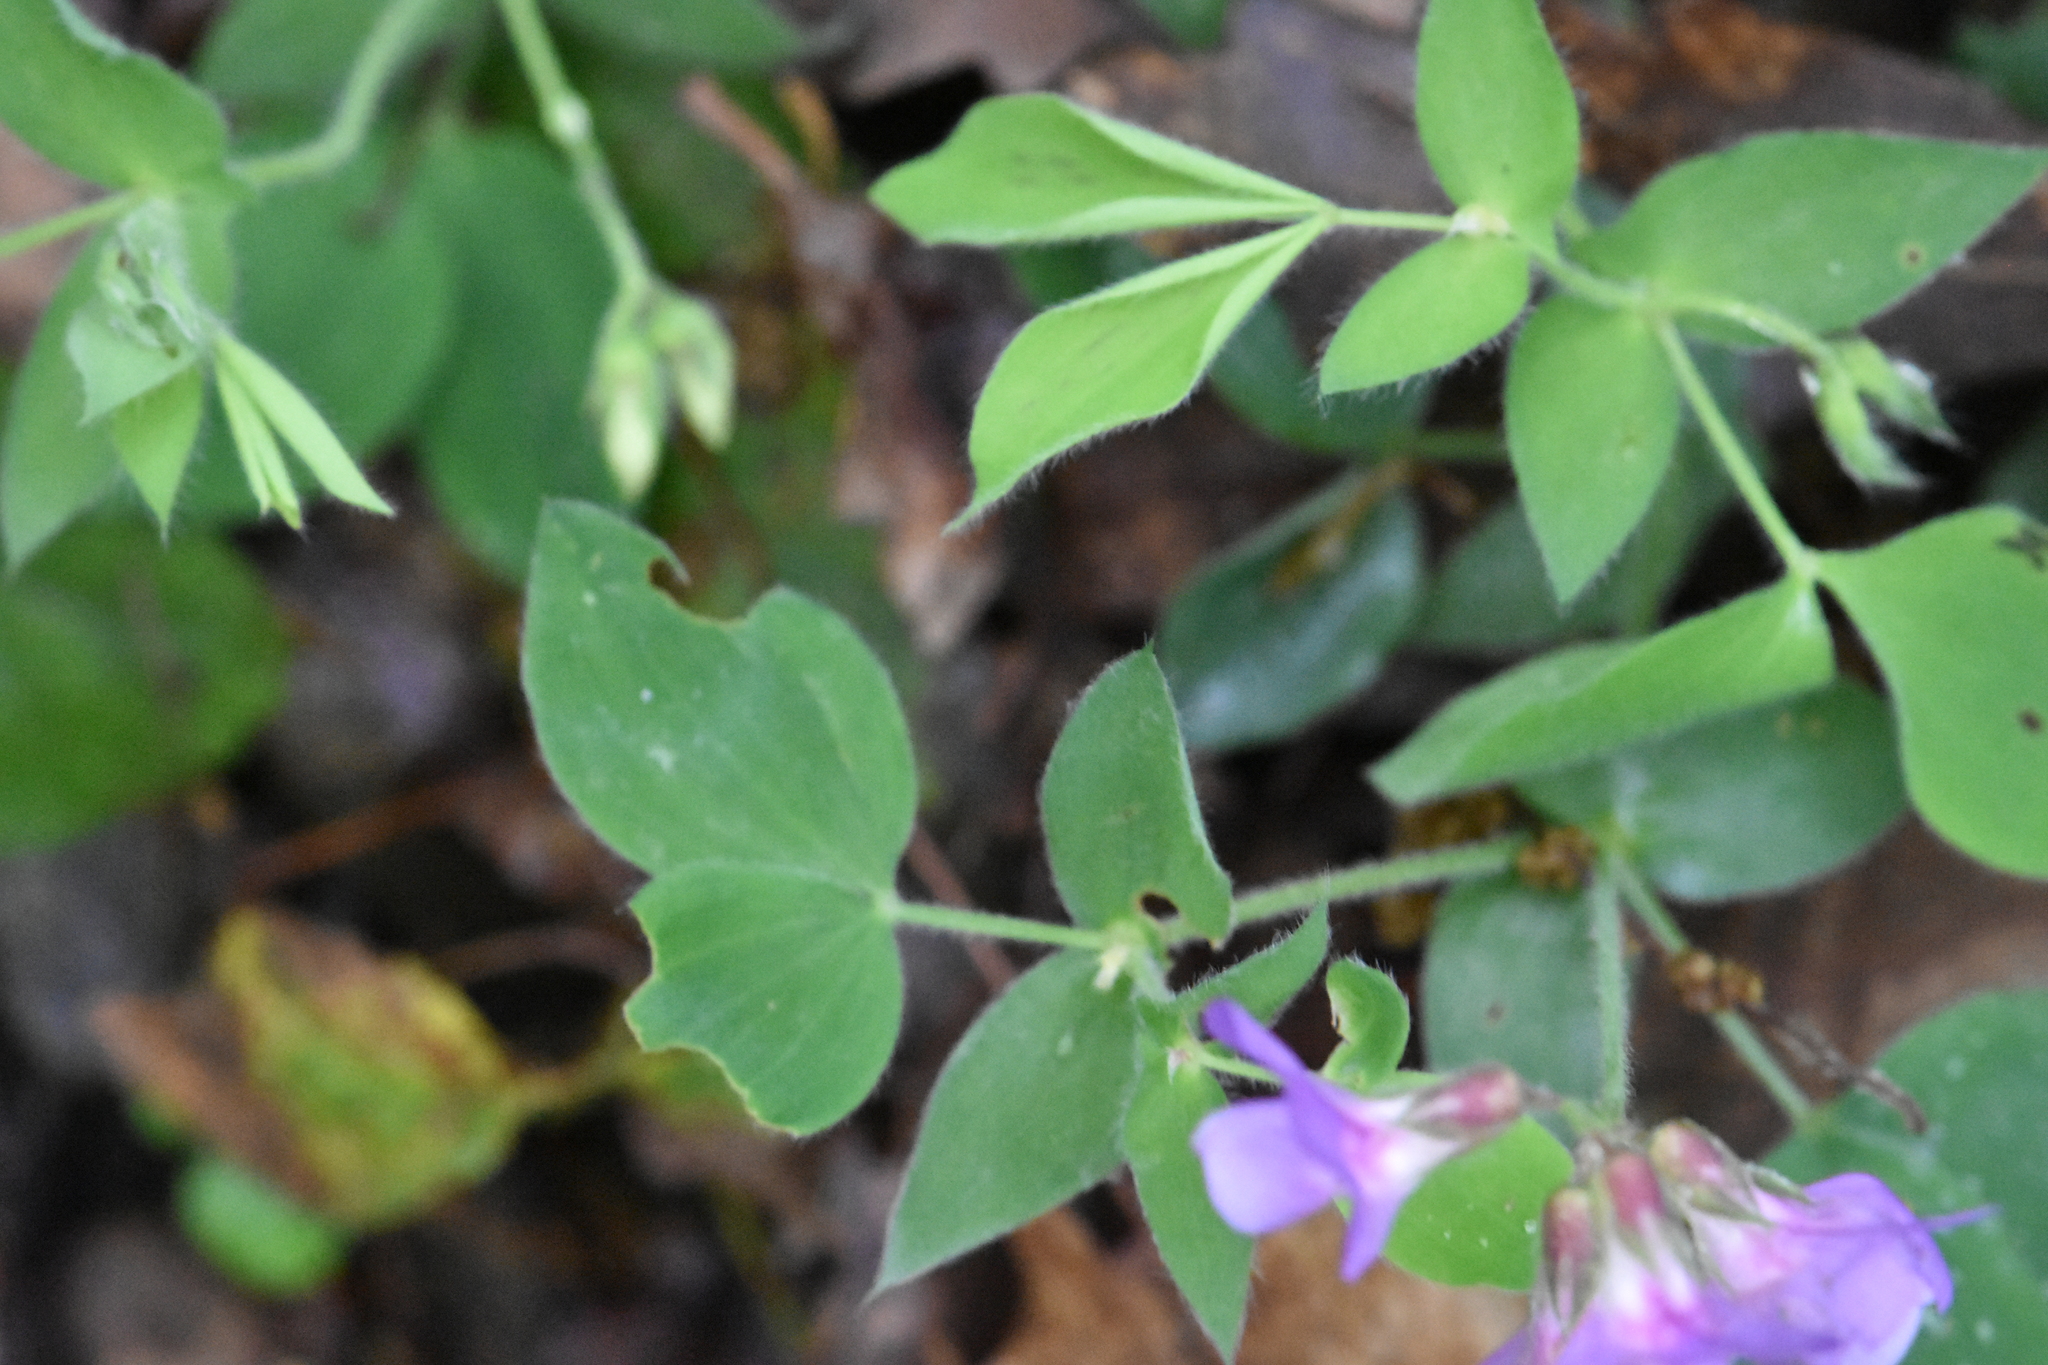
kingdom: Plantae
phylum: Tracheophyta
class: Magnoliopsida
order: Fabales
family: Fabaceae
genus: Lathyrus
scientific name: Lathyrus laxiflorus
